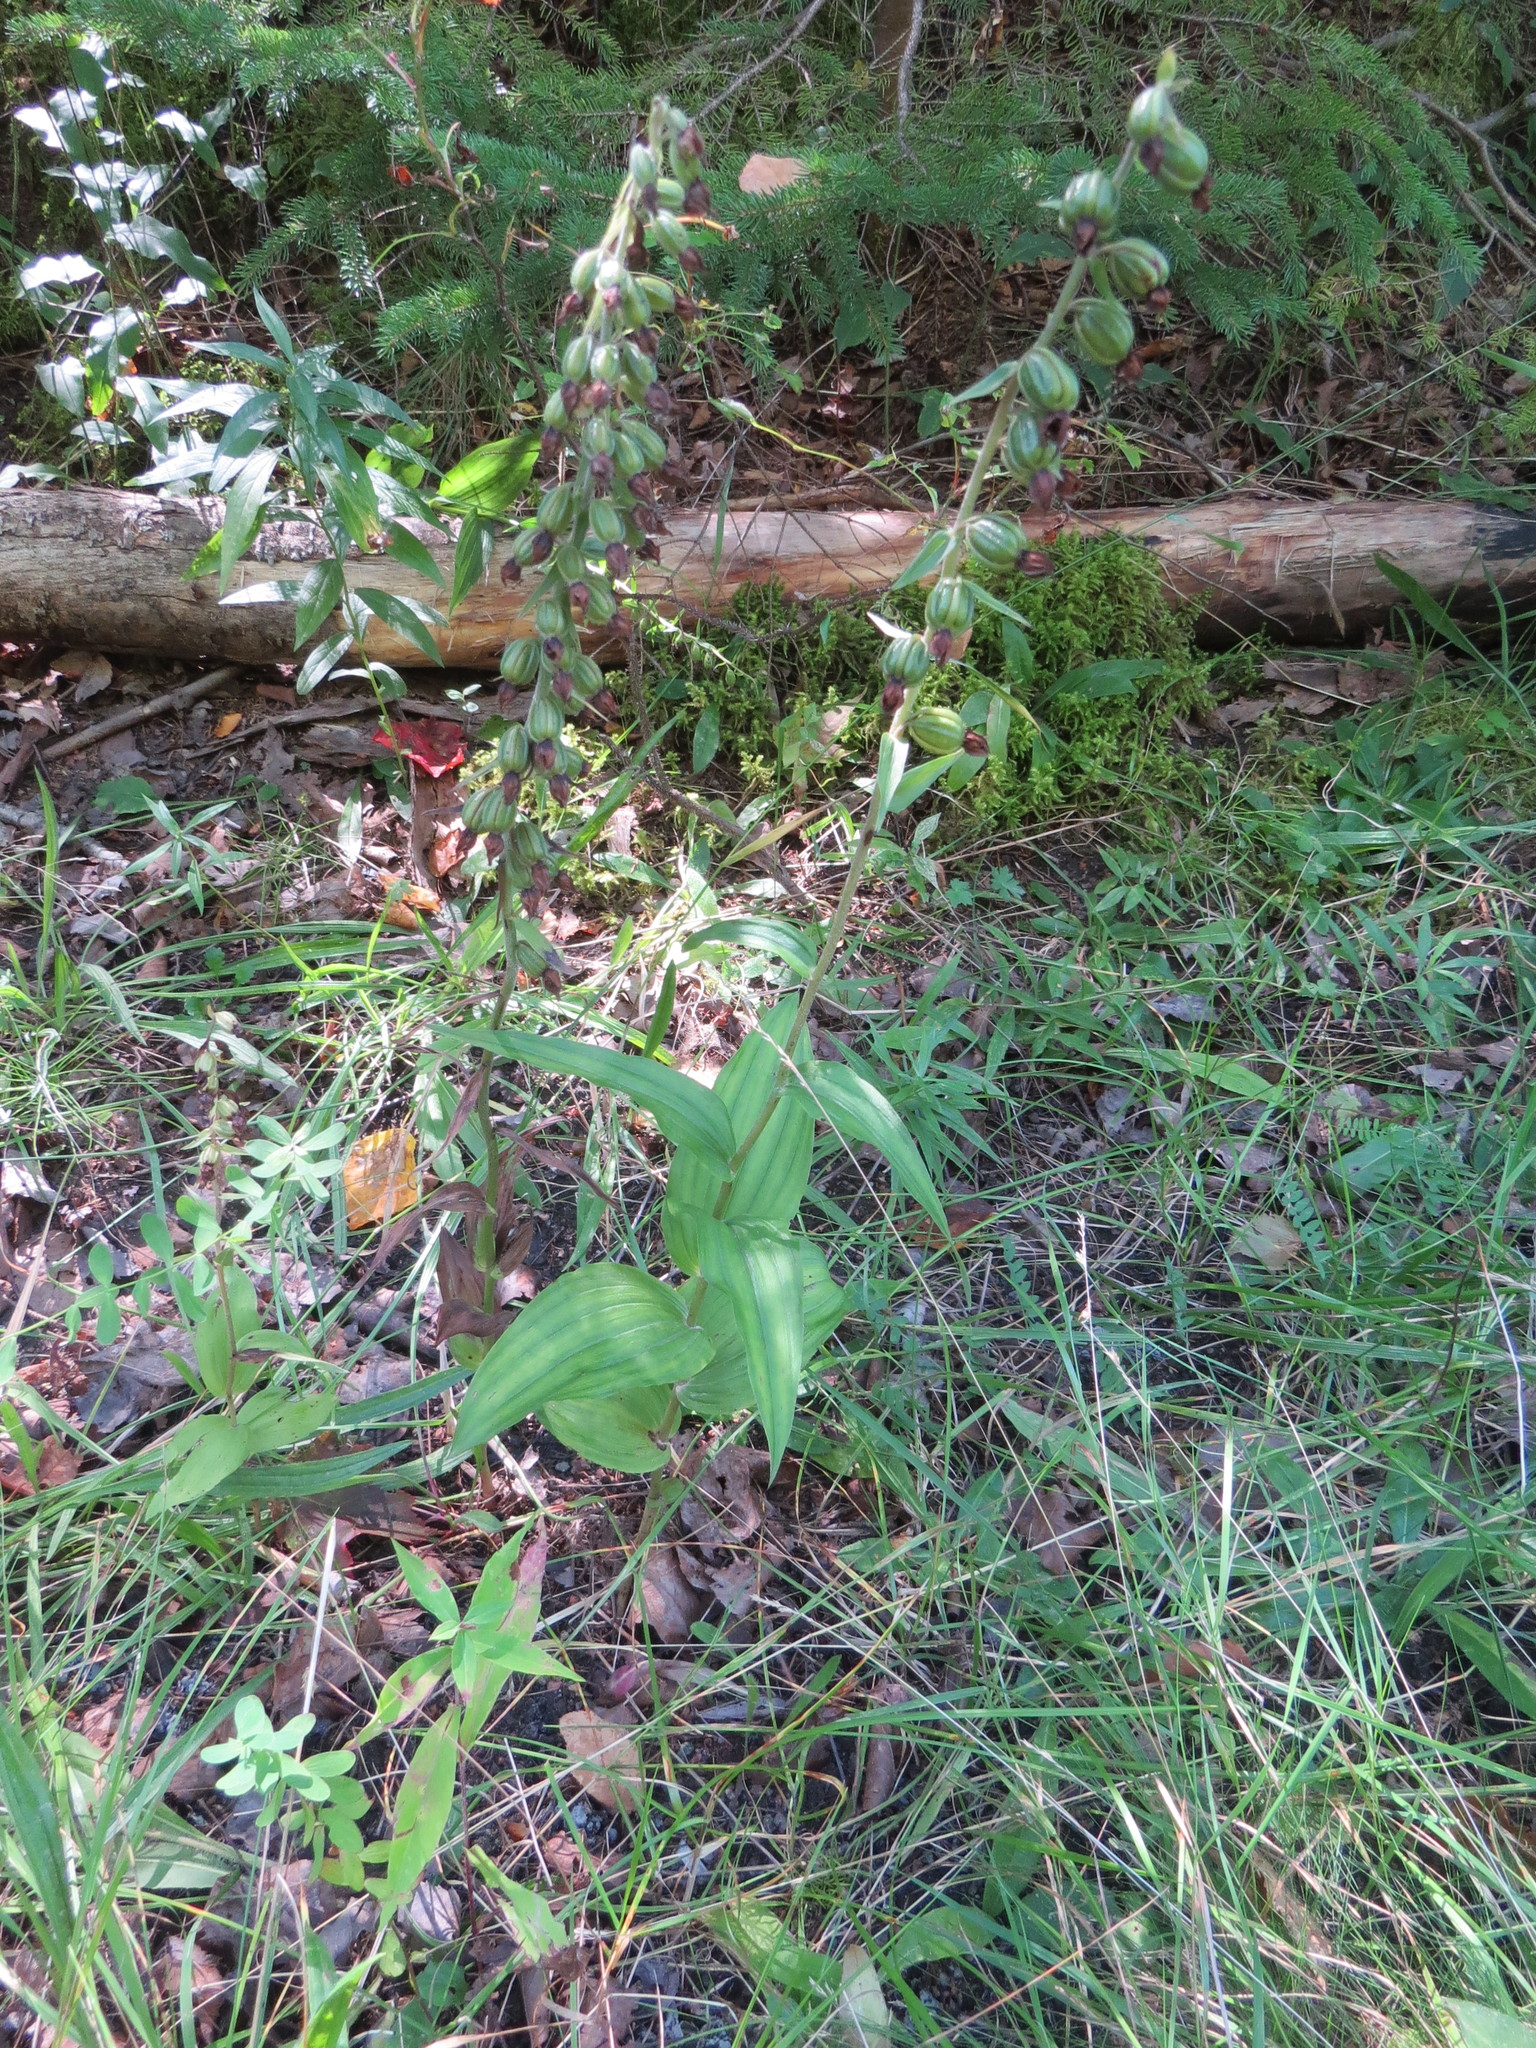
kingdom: Plantae
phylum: Tracheophyta
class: Liliopsida
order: Asparagales
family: Orchidaceae
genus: Epipactis
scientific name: Epipactis helleborine
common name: Broad-leaved helleborine
